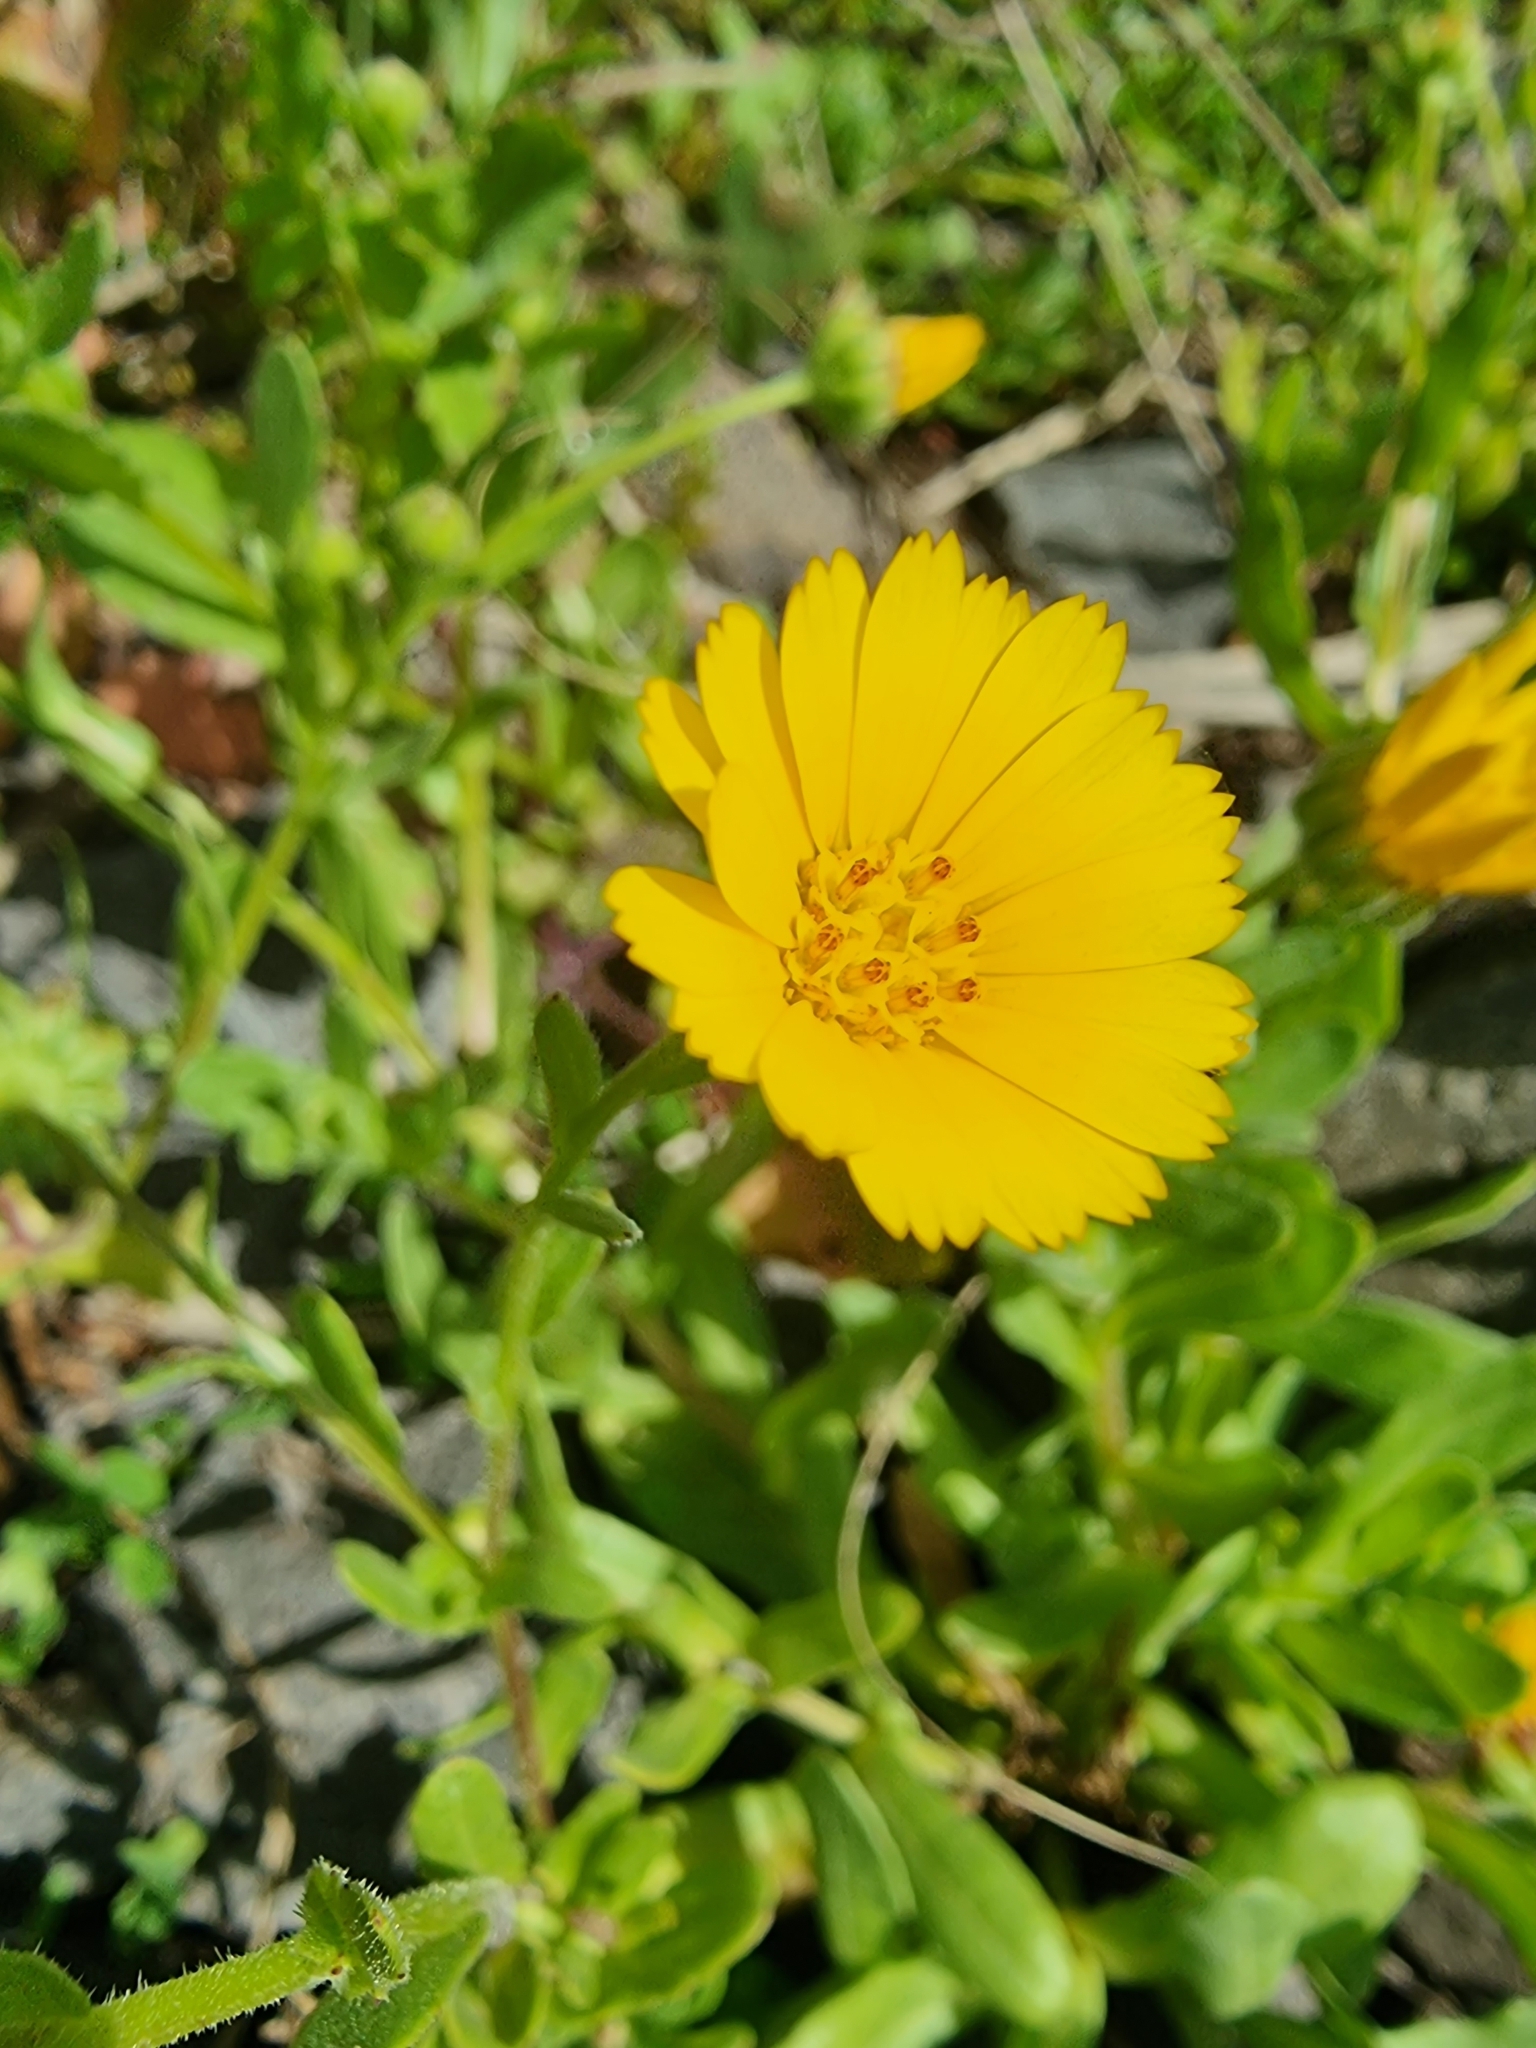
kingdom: Plantae
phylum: Tracheophyta
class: Magnoliopsida
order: Asterales
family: Asteraceae
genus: Calendula
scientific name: Calendula arvensis
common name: Field marigold
